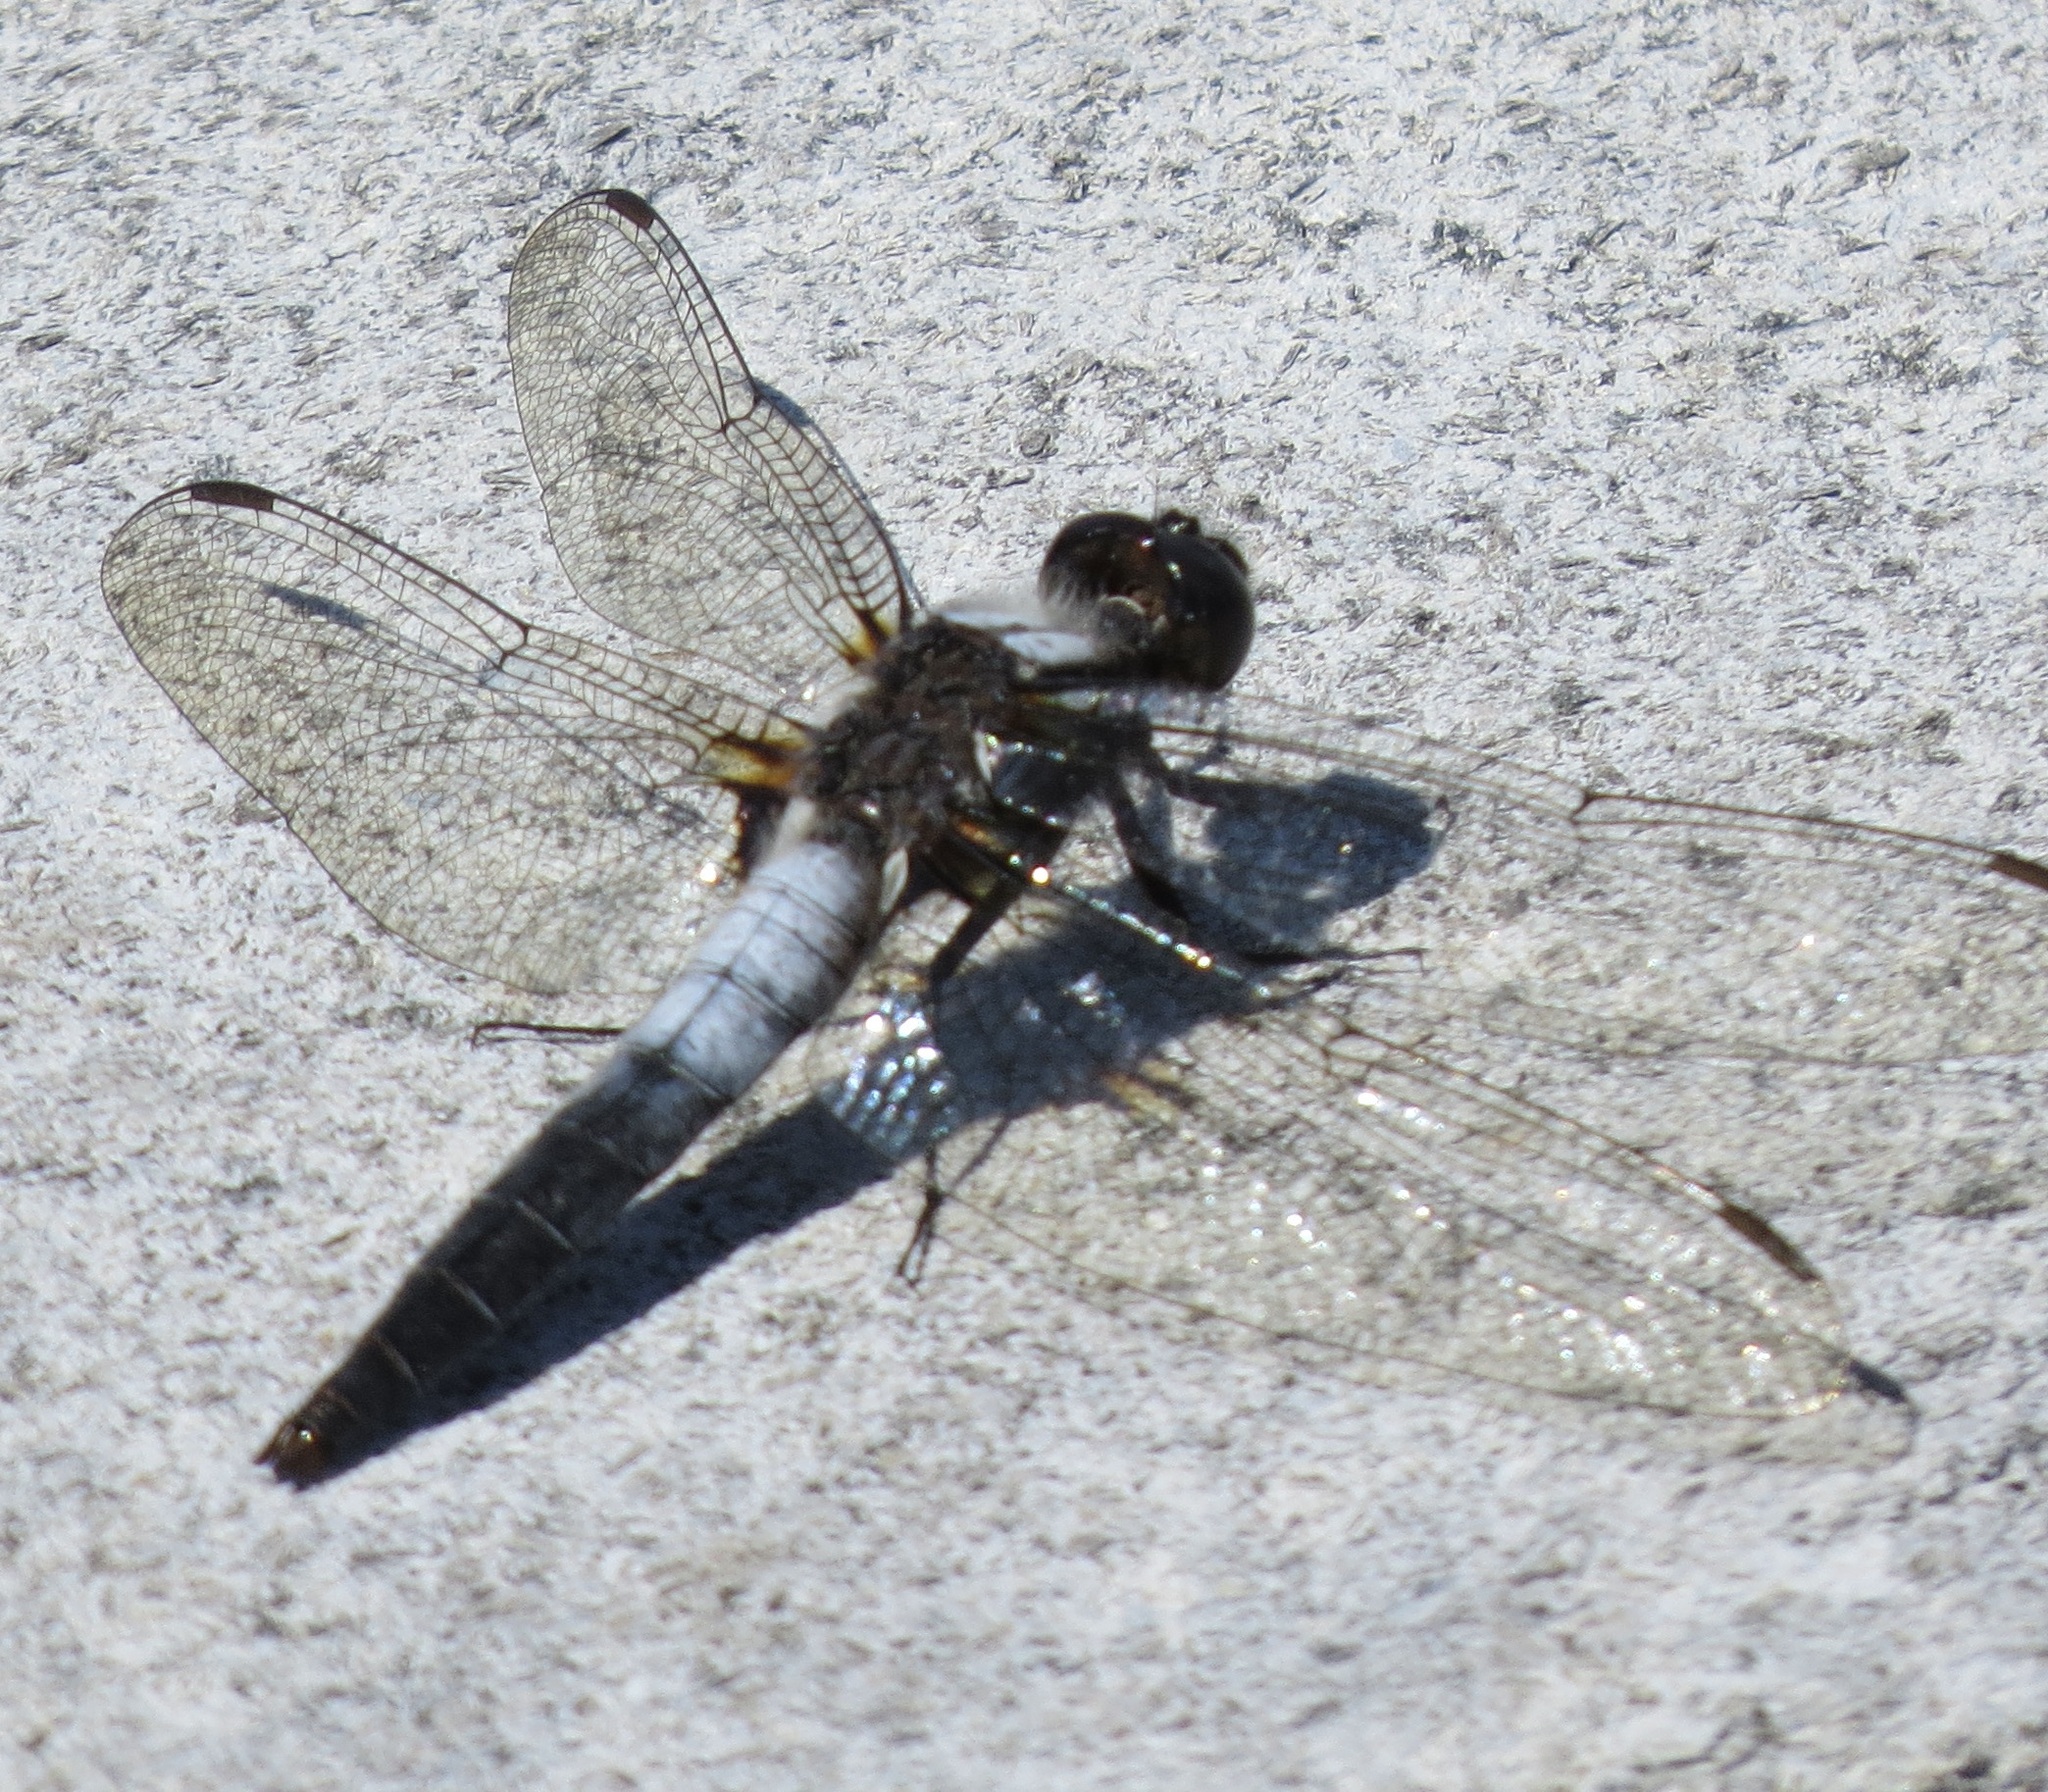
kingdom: Animalia
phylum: Arthropoda
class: Insecta
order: Odonata
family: Libellulidae
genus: Ladona
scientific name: Ladona julia
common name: Chalk-fronted corporal
